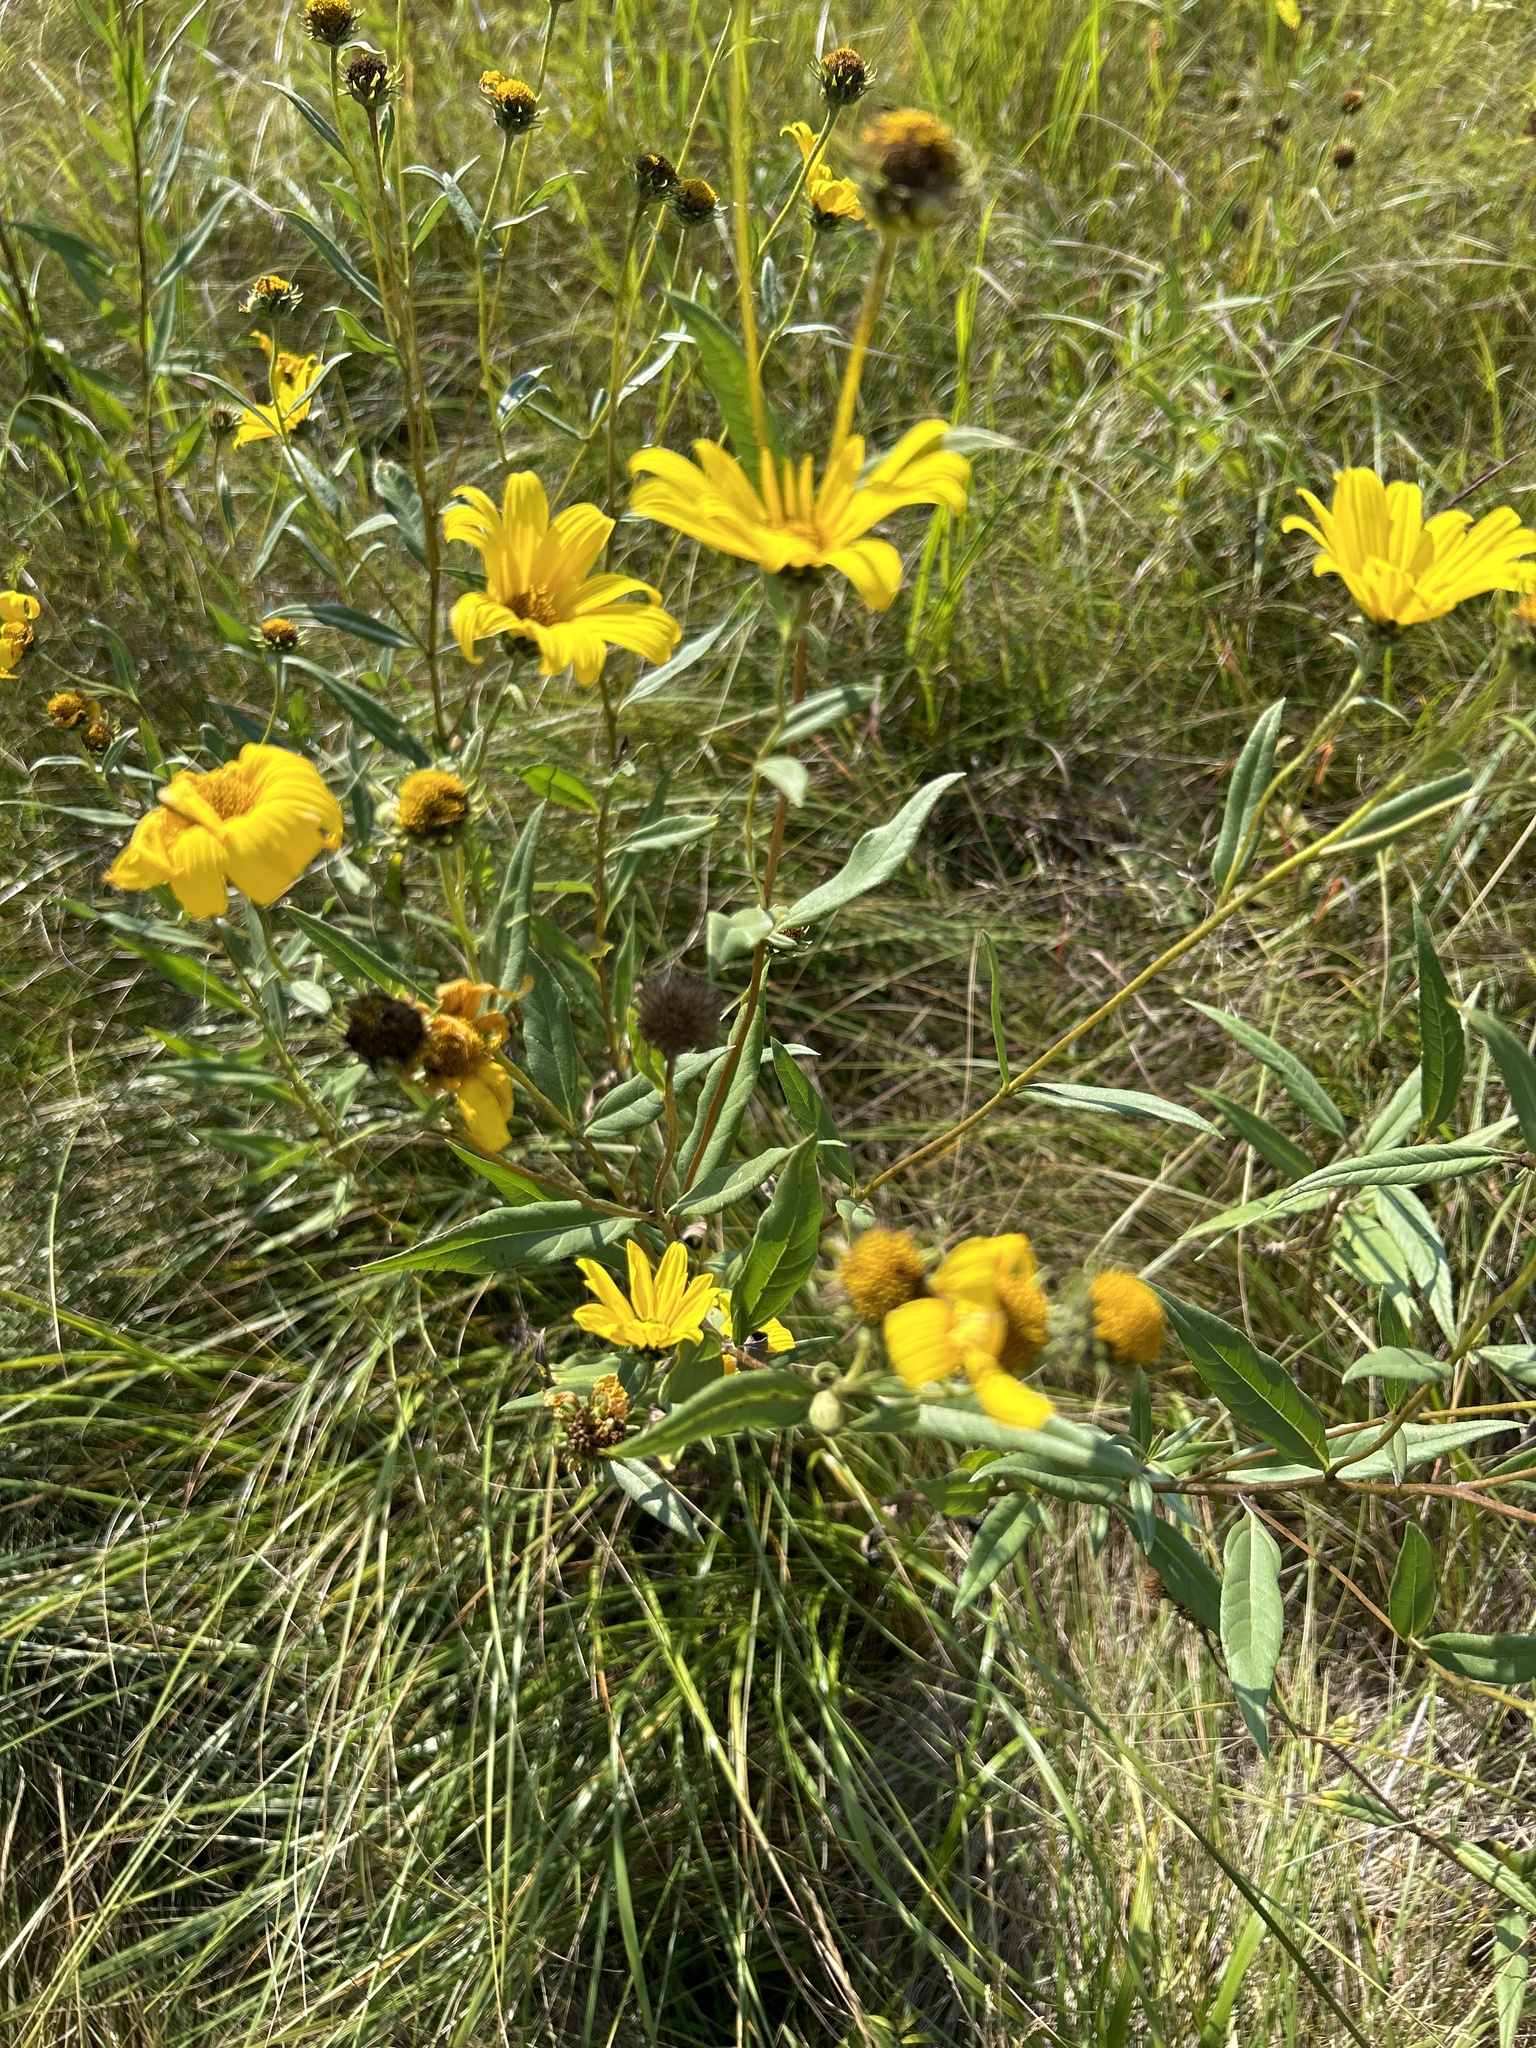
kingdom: Plantae
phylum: Tracheophyta
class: Magnoliopsida
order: Asterales
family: Asteraceae
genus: Helianthus
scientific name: Helianthus nuttallii
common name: Nuttall's sunflower
